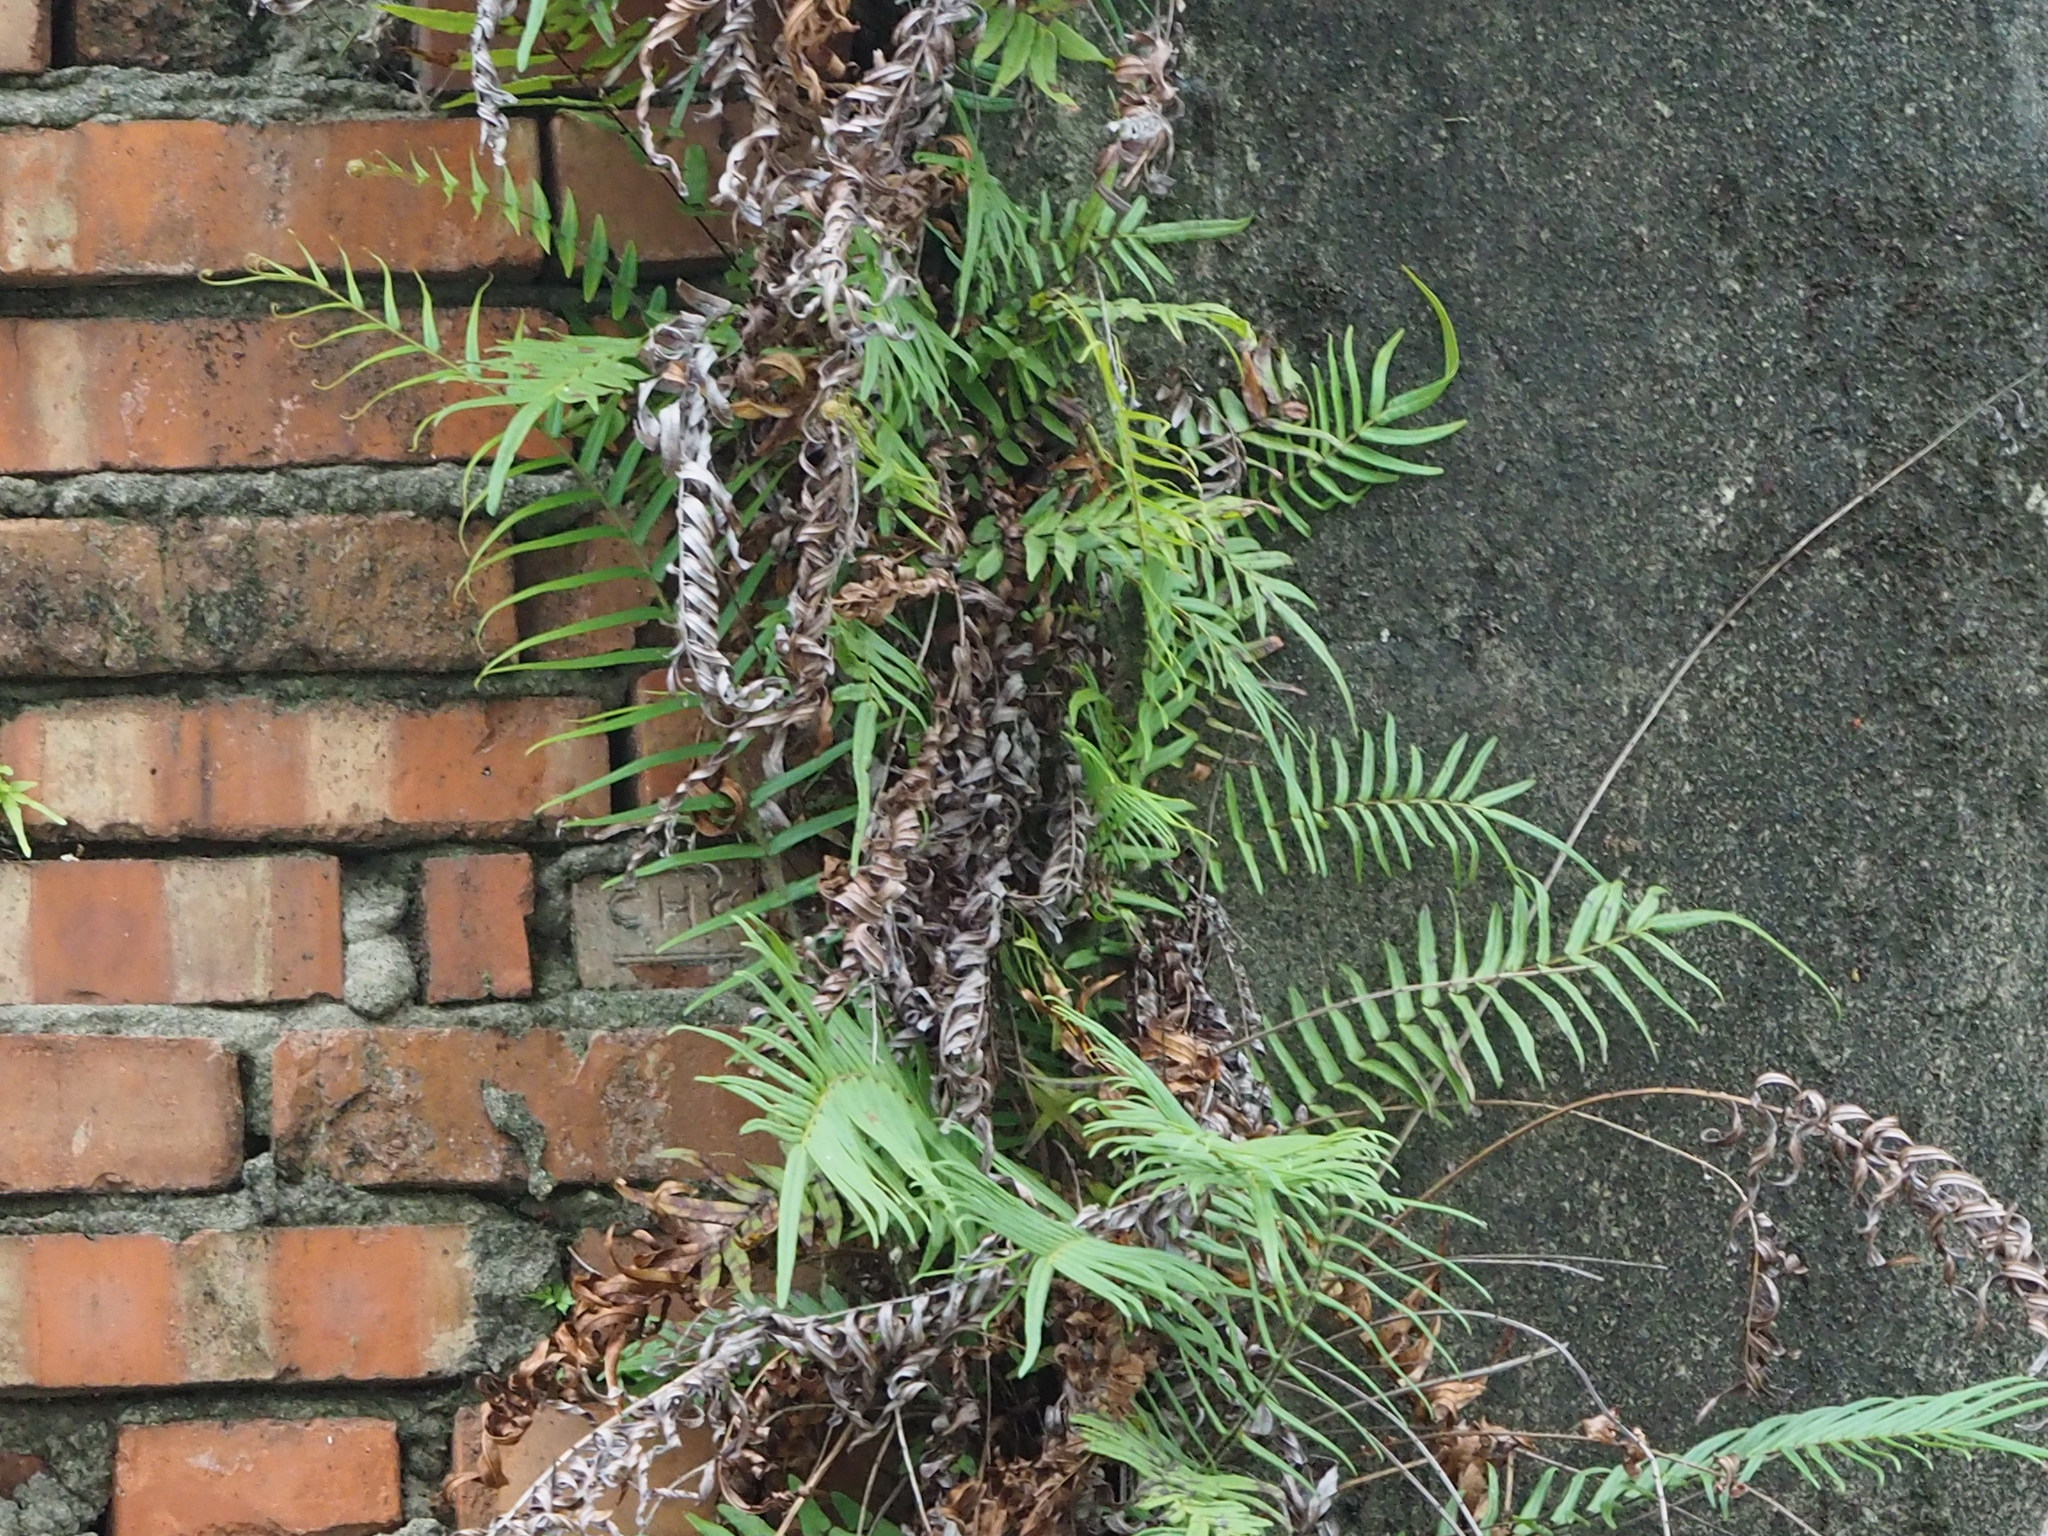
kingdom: Plantae
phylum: Tracheophyta
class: Polypodiopsida
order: Polypodiales
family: Pteridaceae
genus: Pteris
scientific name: Pteris vittata
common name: Ladder brake
